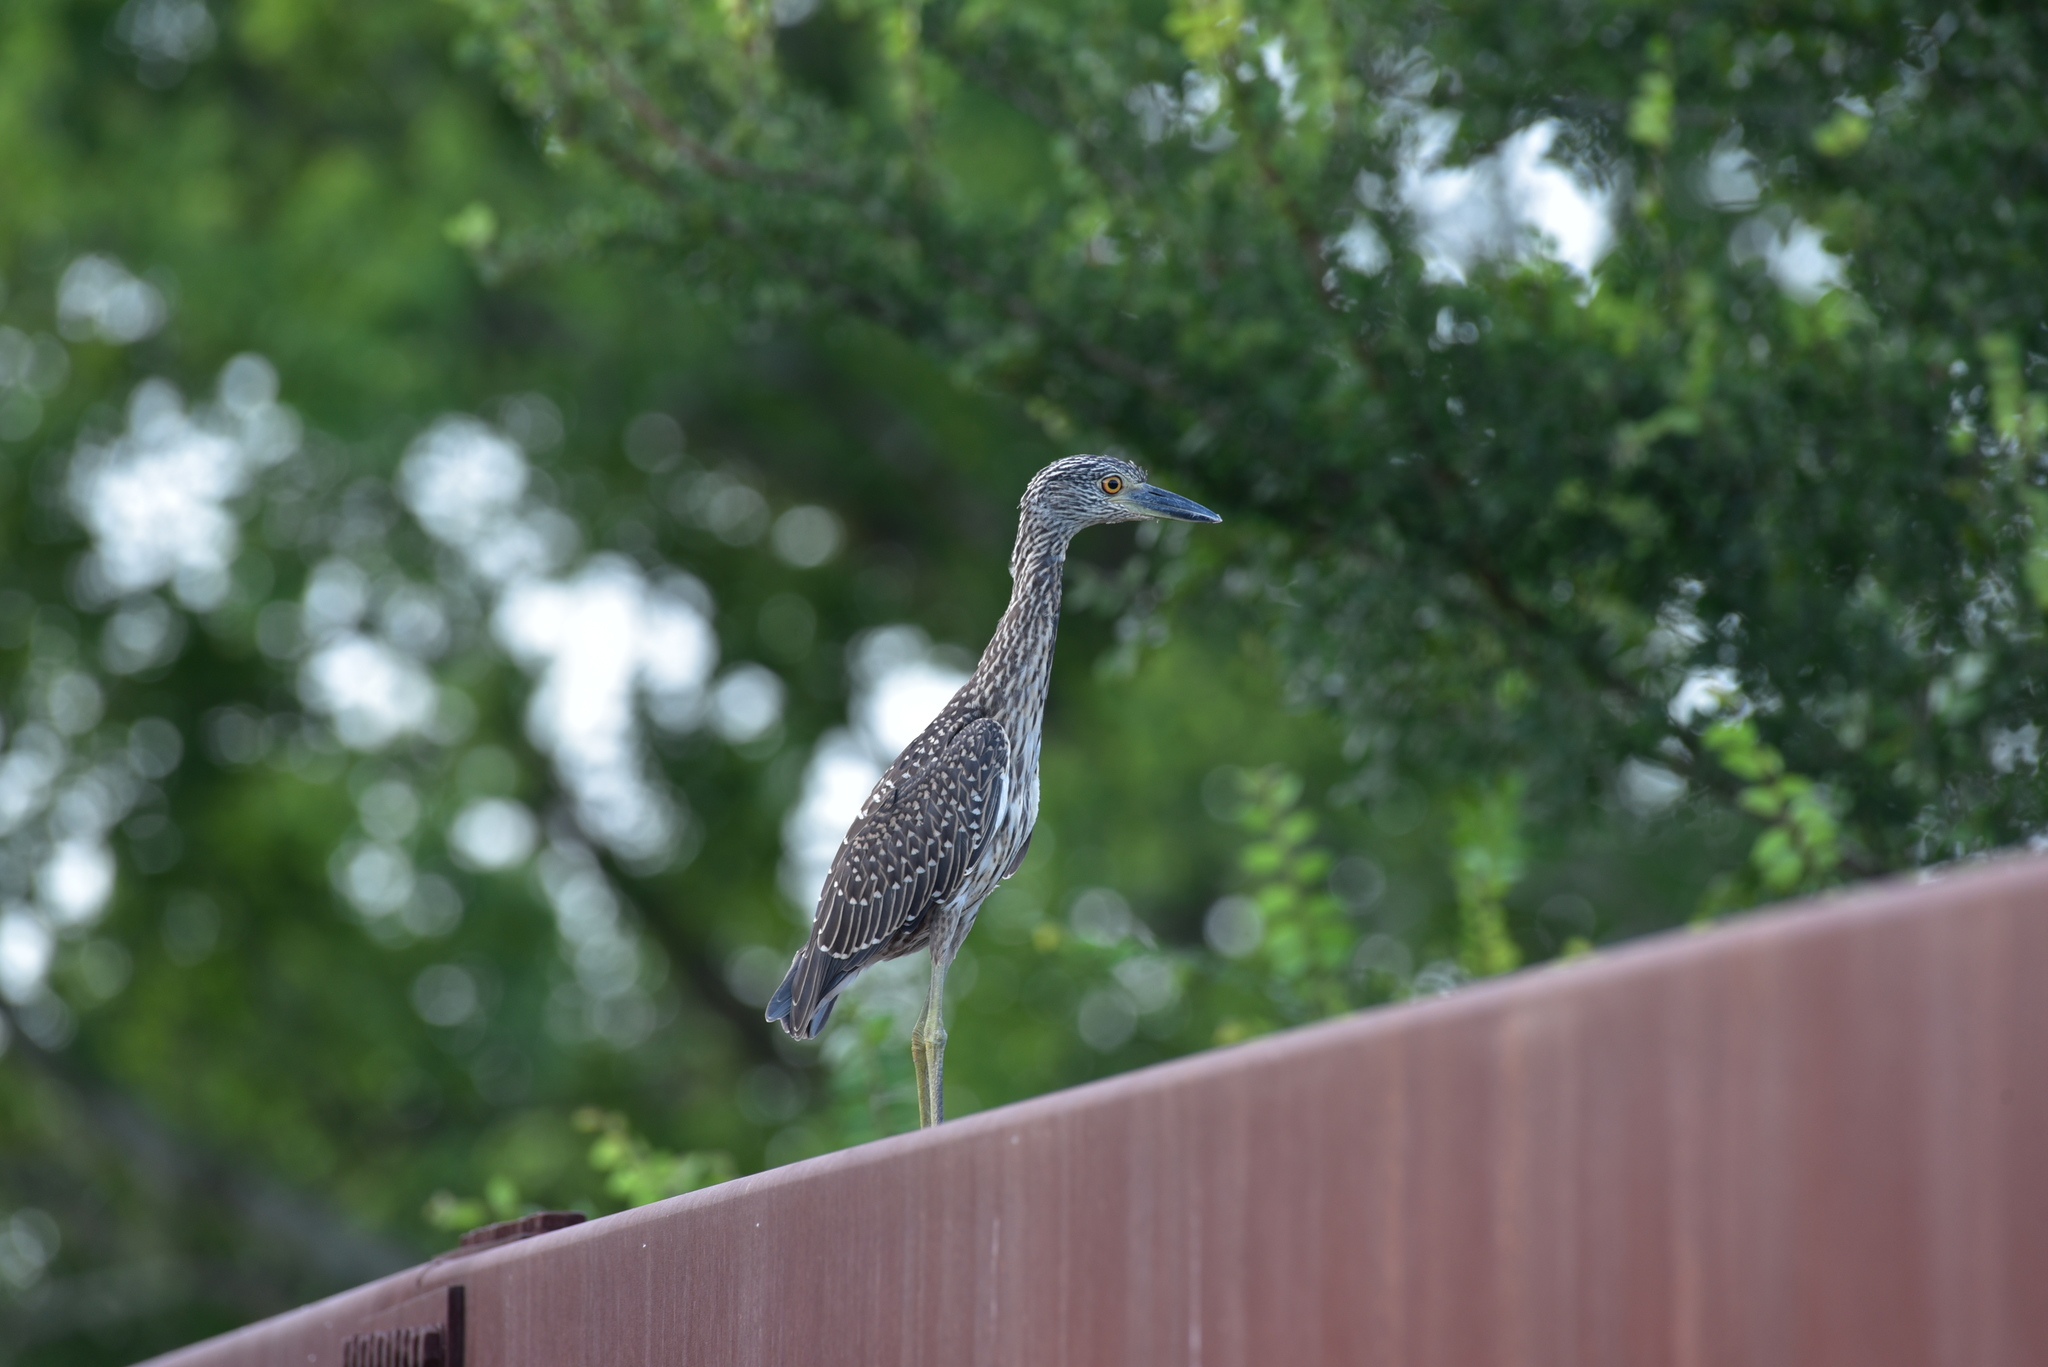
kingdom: Animalia
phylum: Chordata
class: Aves
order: Pelecaniformes
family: Ardeidae
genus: Nyctanassa
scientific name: Nyctanassa violacea
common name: Yellow-crowned night heron
